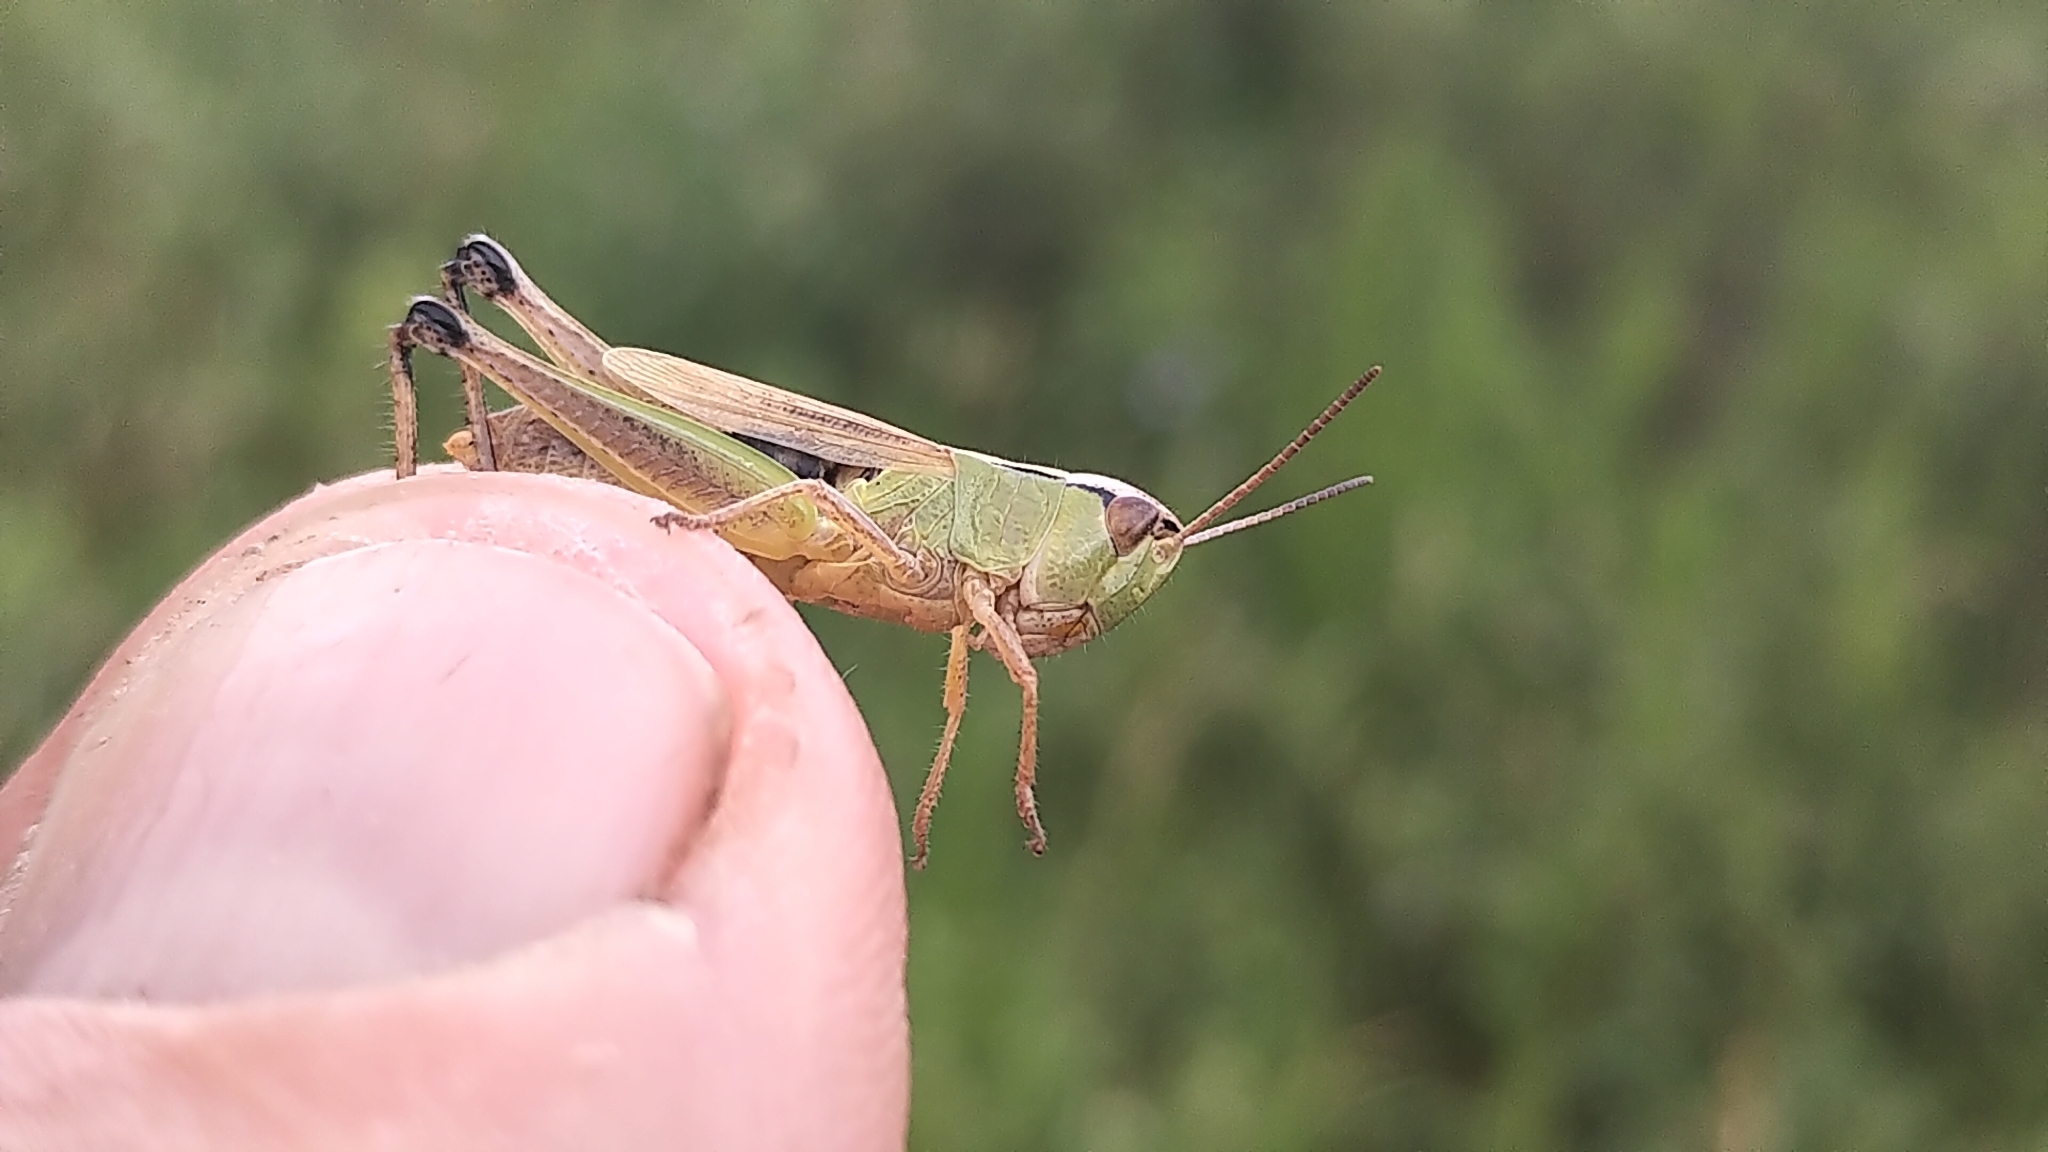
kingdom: Animalia
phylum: Arthropoda
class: Insecta
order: Orthoptera
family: Acrididae
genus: Pseudochorthippus
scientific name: Pseudochorthippus curtipennis
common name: Marsh meadow grasshopper
